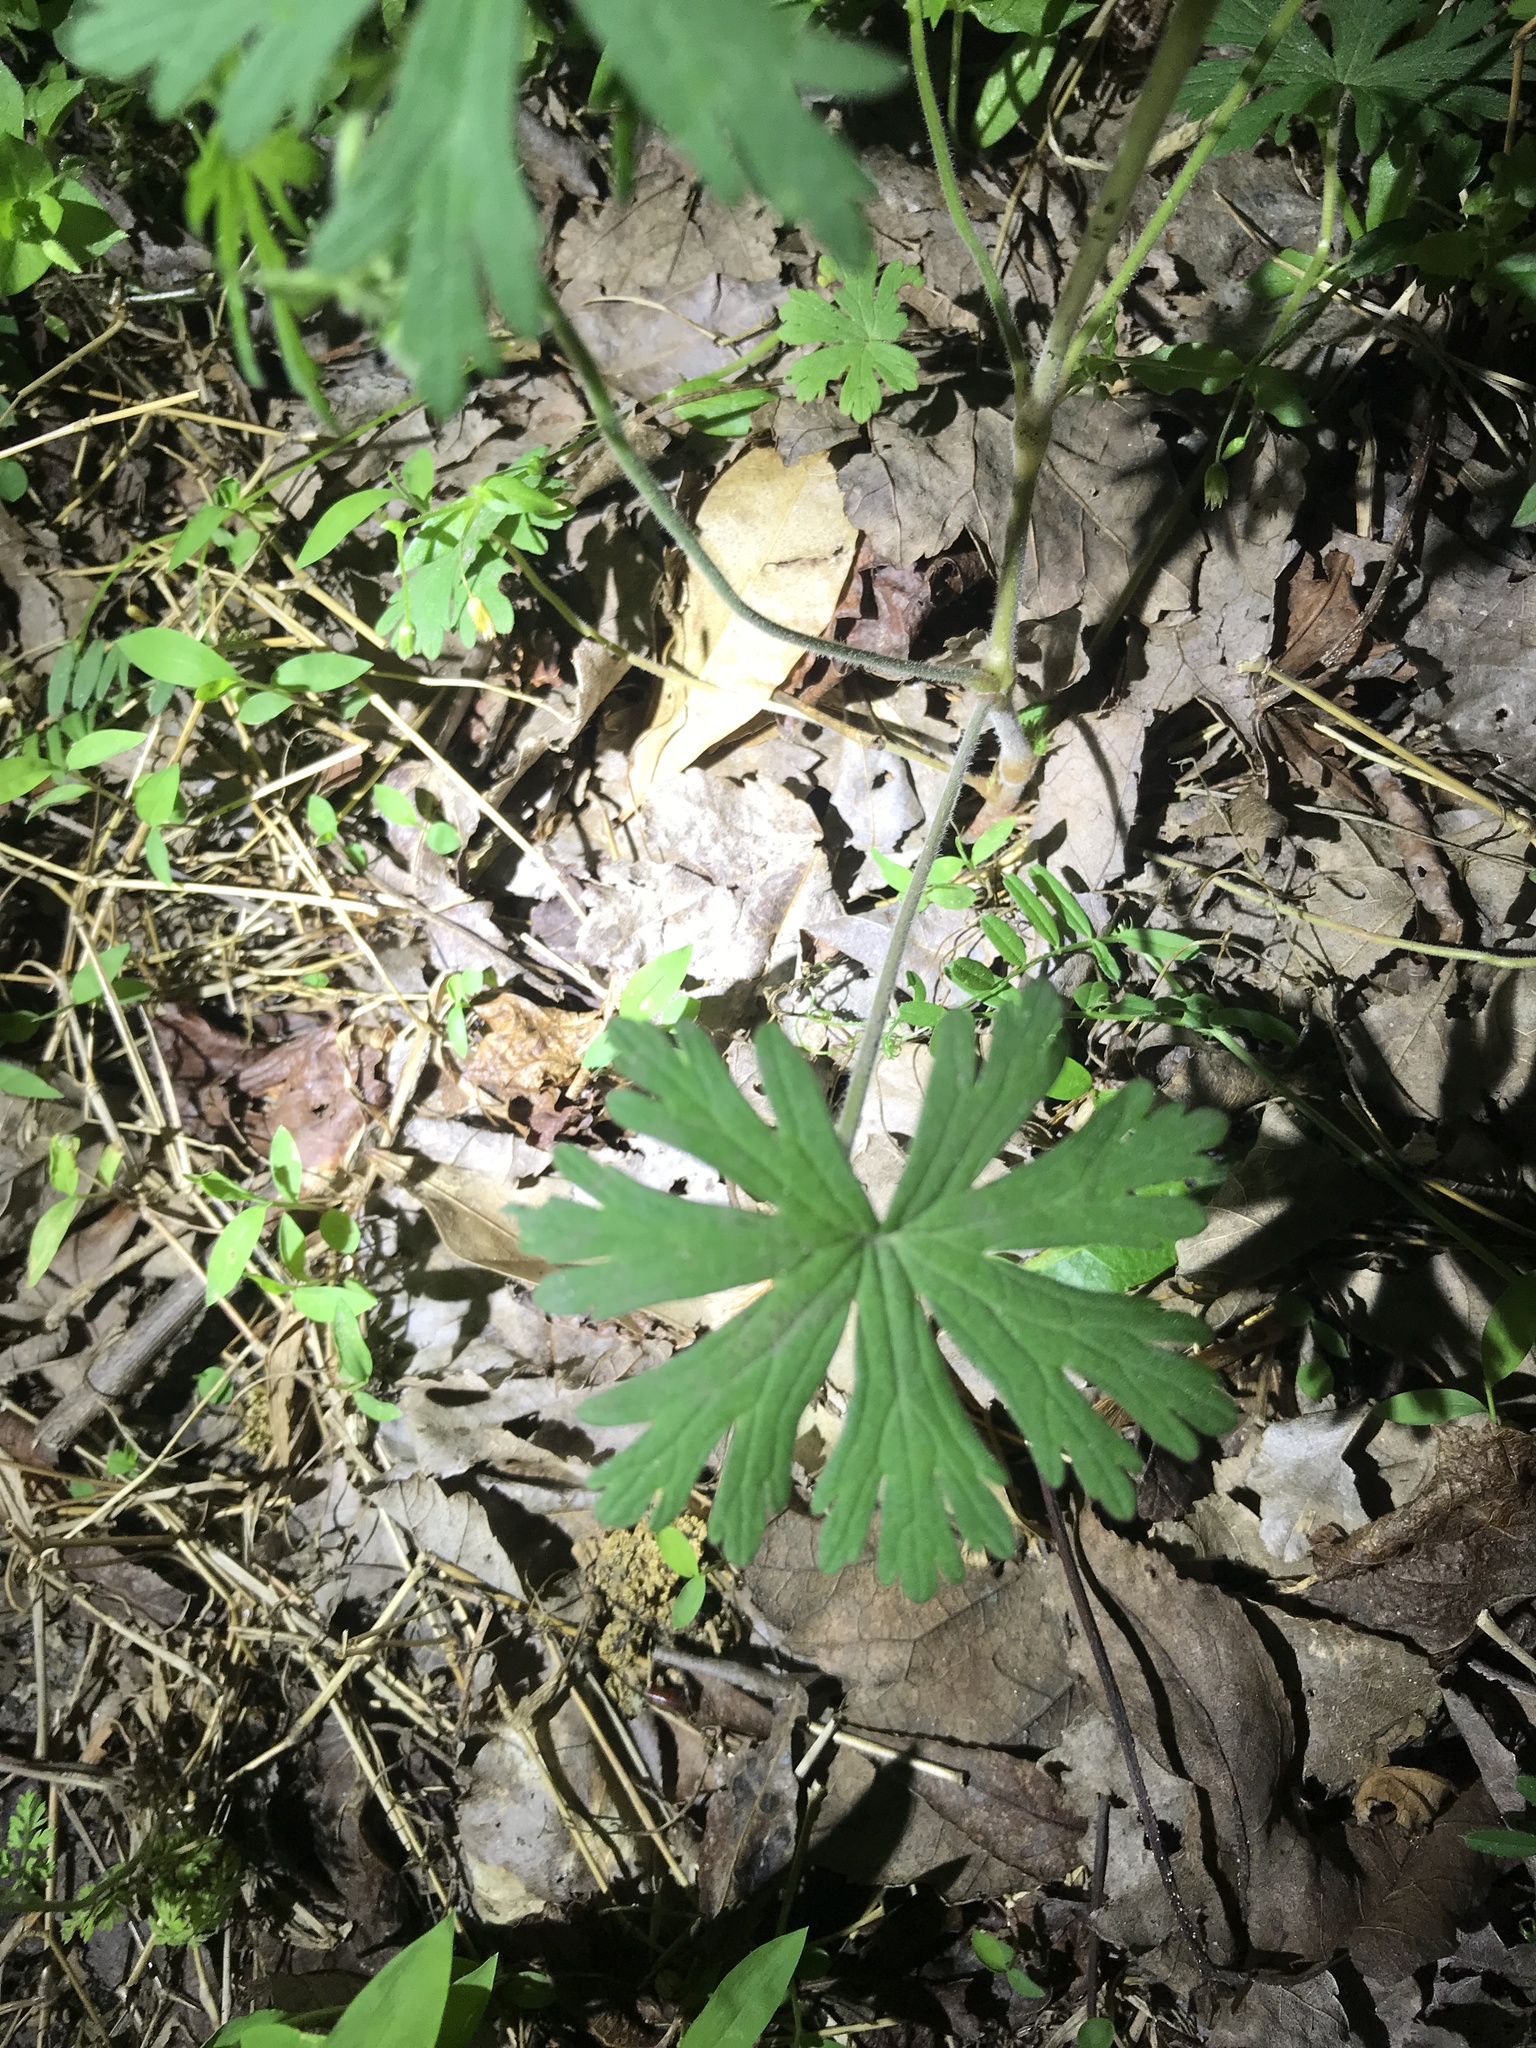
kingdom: Plantae
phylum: Tracheophyta
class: Magnoliopsida
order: Geraniales
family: Geraniaceae
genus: Geranium
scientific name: Geranium carolinianum
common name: Carolina crane's-bill
